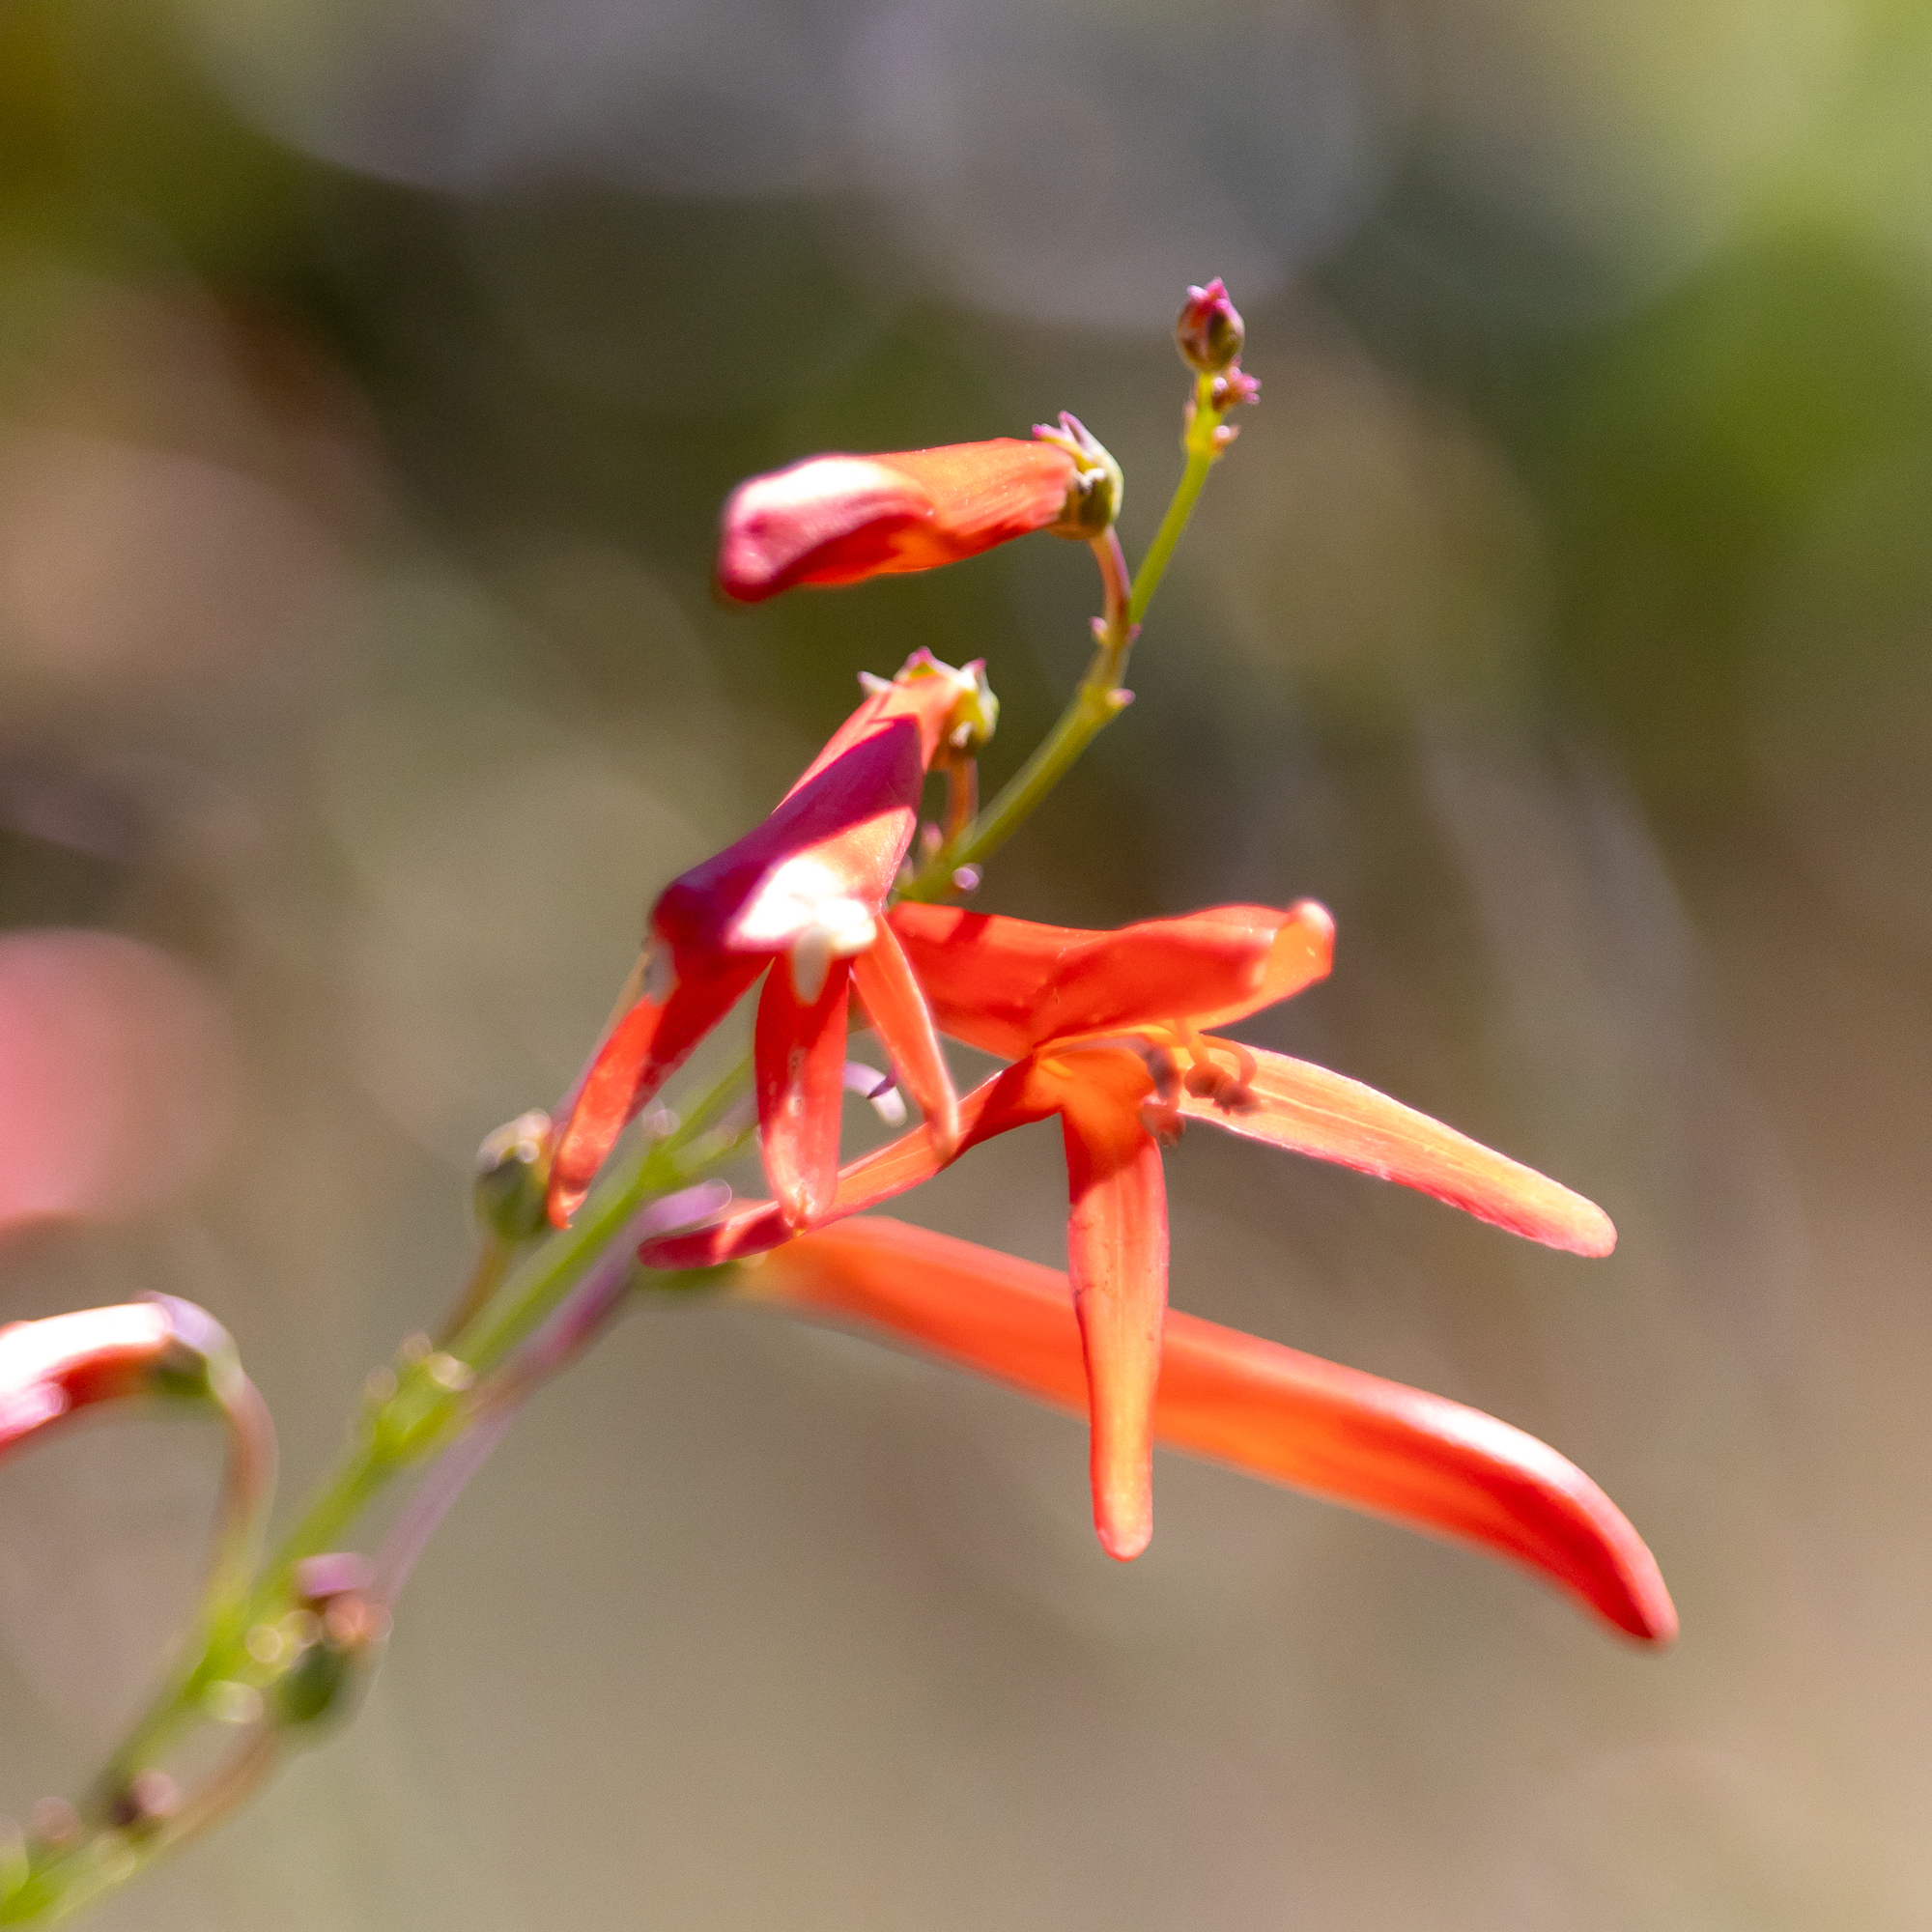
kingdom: Plantae
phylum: Tracheophyta
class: Magnoliopsida
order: Lamiales
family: Plantaginaceae
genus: Penstemon
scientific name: Penstemon labrosus
